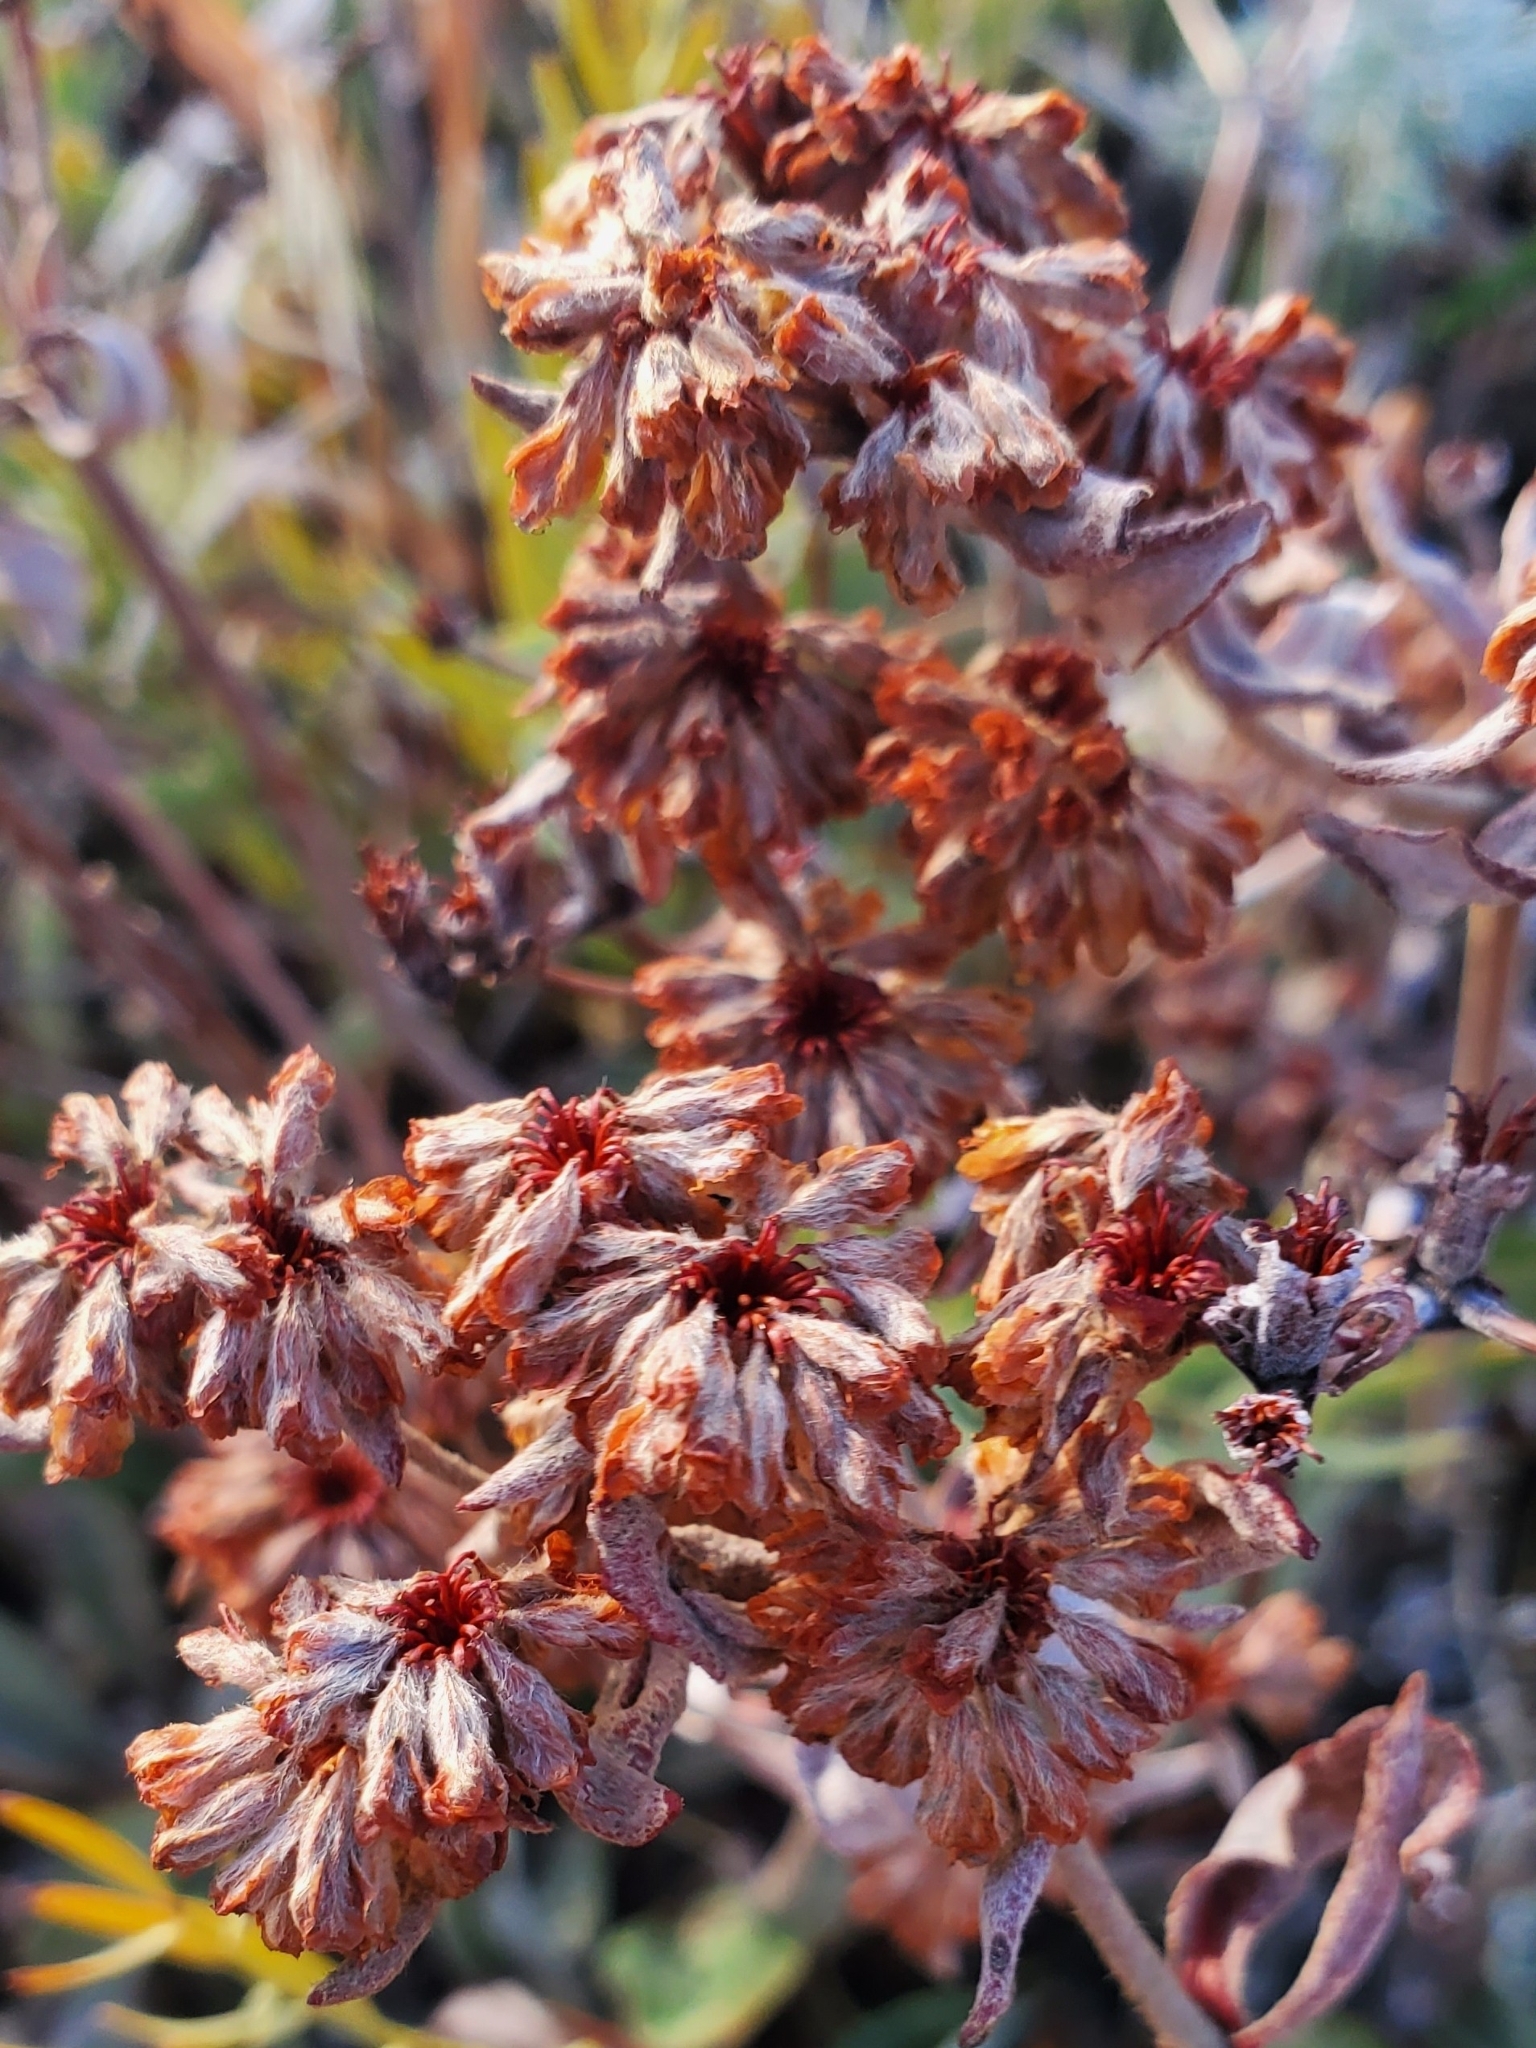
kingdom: Plantae
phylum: Tracheophyta
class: Magnoliopsida
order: Caryophyllales
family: Polygonaceae
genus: Eriogonum
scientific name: Eriogonum umbellatum
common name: Sulfur-buckwheat
